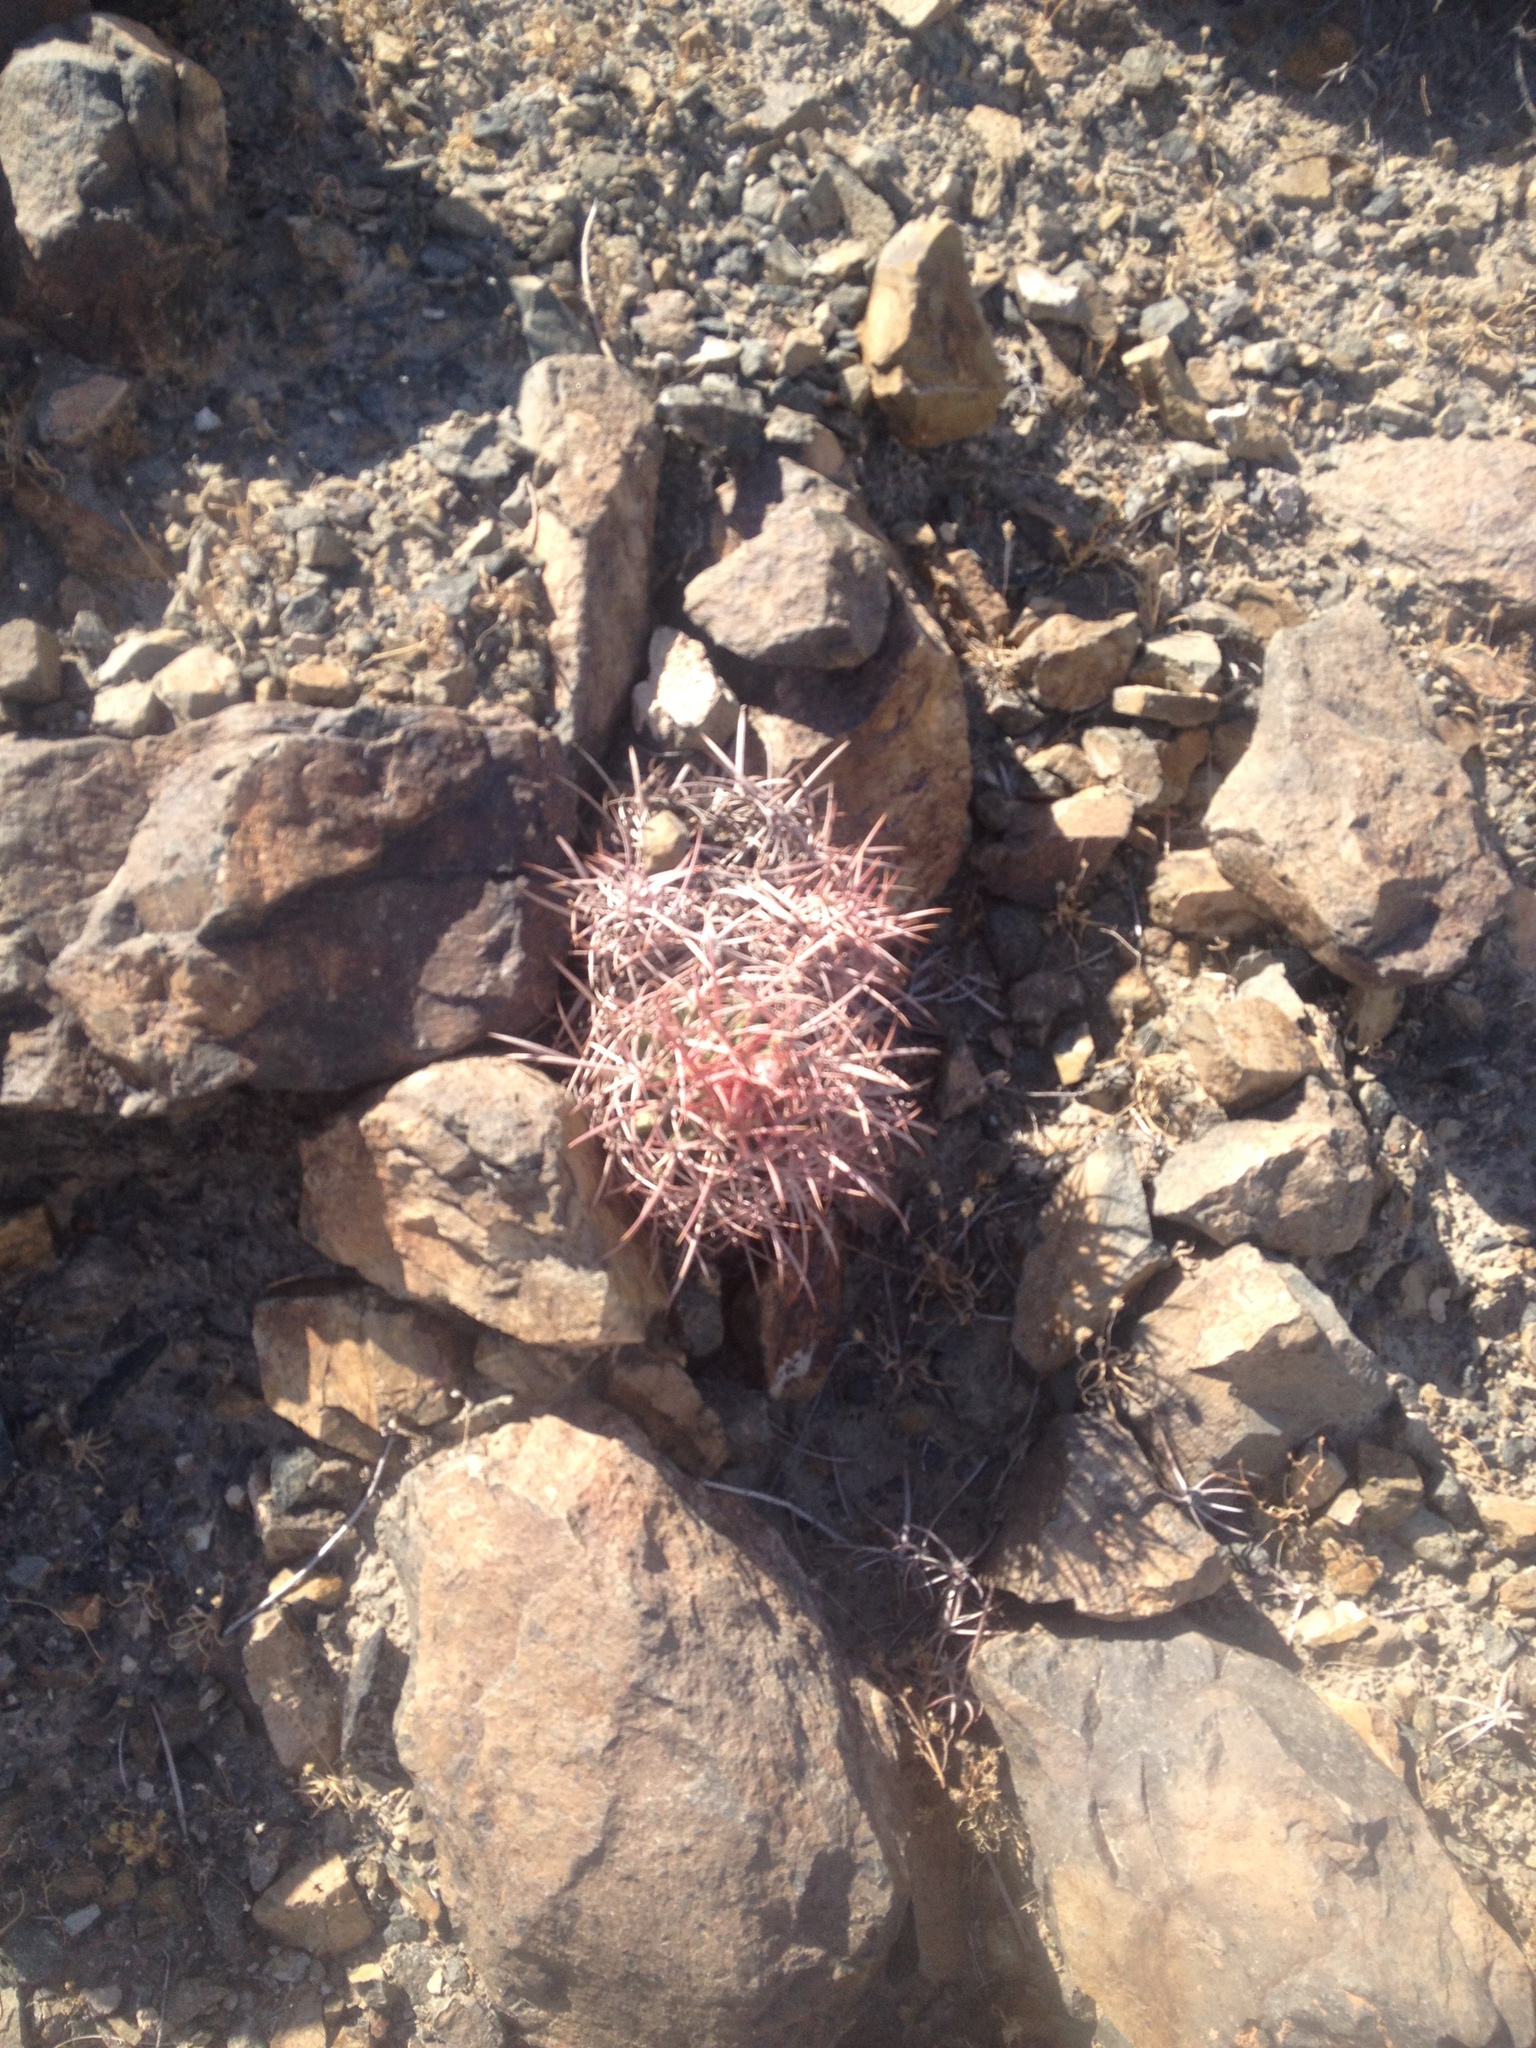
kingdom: Plantae
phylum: Tracheophyta
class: Magnoliopsida
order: Caryophyllales
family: Cactaceae
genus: Ferocactus
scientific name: Ferocactus cylindraceus
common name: California barrel cactus
